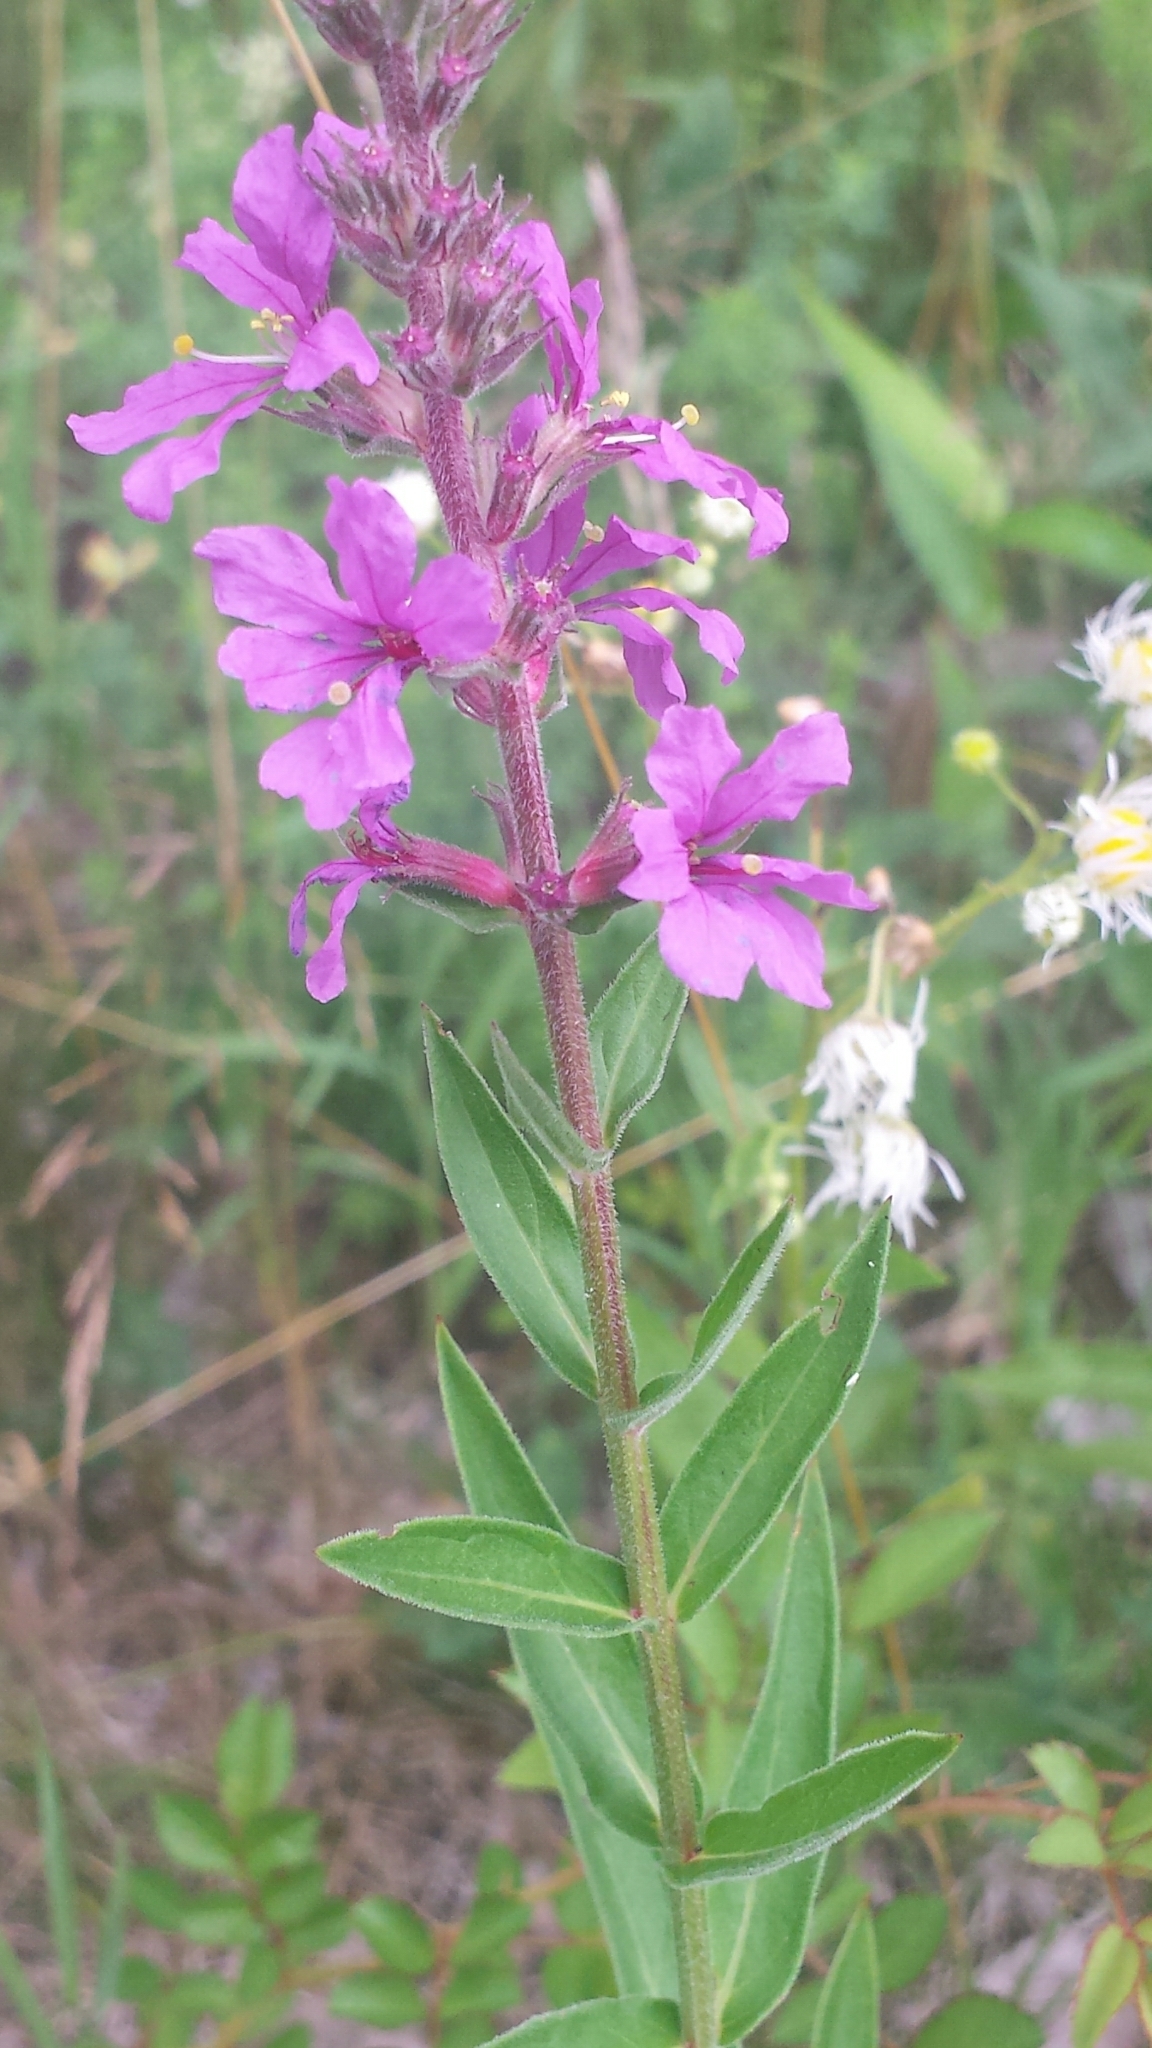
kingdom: Plantae
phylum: Tracheophyta
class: Magnoliopsida
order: Myrtales
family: Lythraceae
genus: Lythrum
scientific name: Lythrum salicaria
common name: Purple loosestrife
